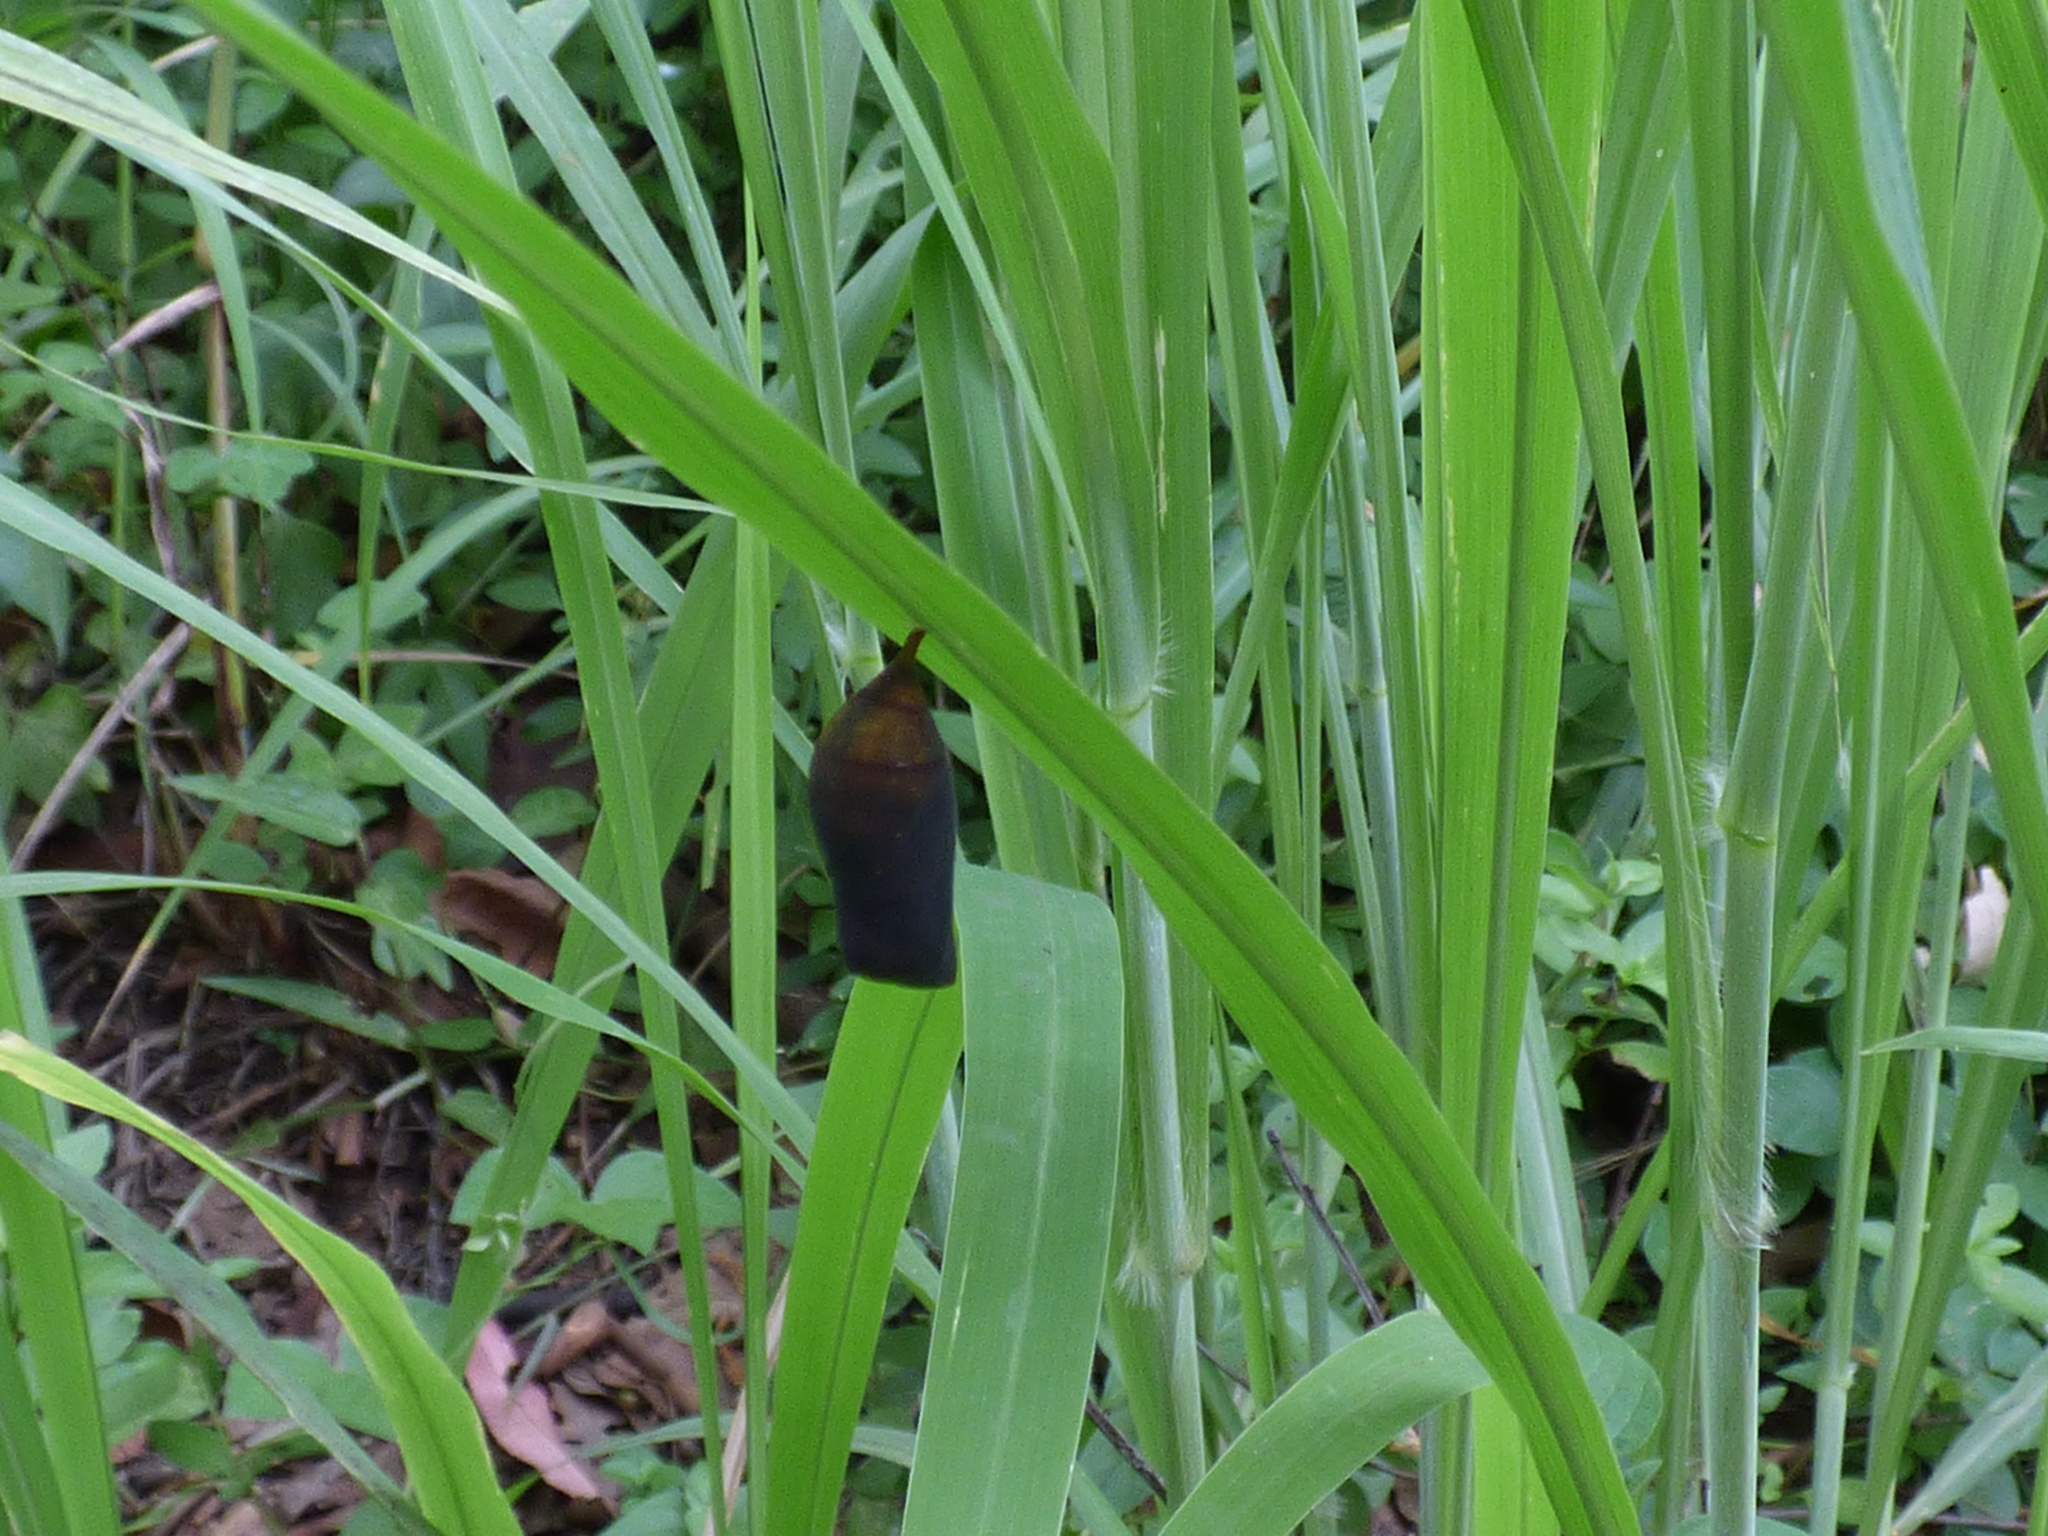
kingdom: Animalia
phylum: Arthropoda
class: Insecta
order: Lepidoptera
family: Nymphalidae
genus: Melanitis
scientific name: Melanitis leda
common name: Twilight brown
